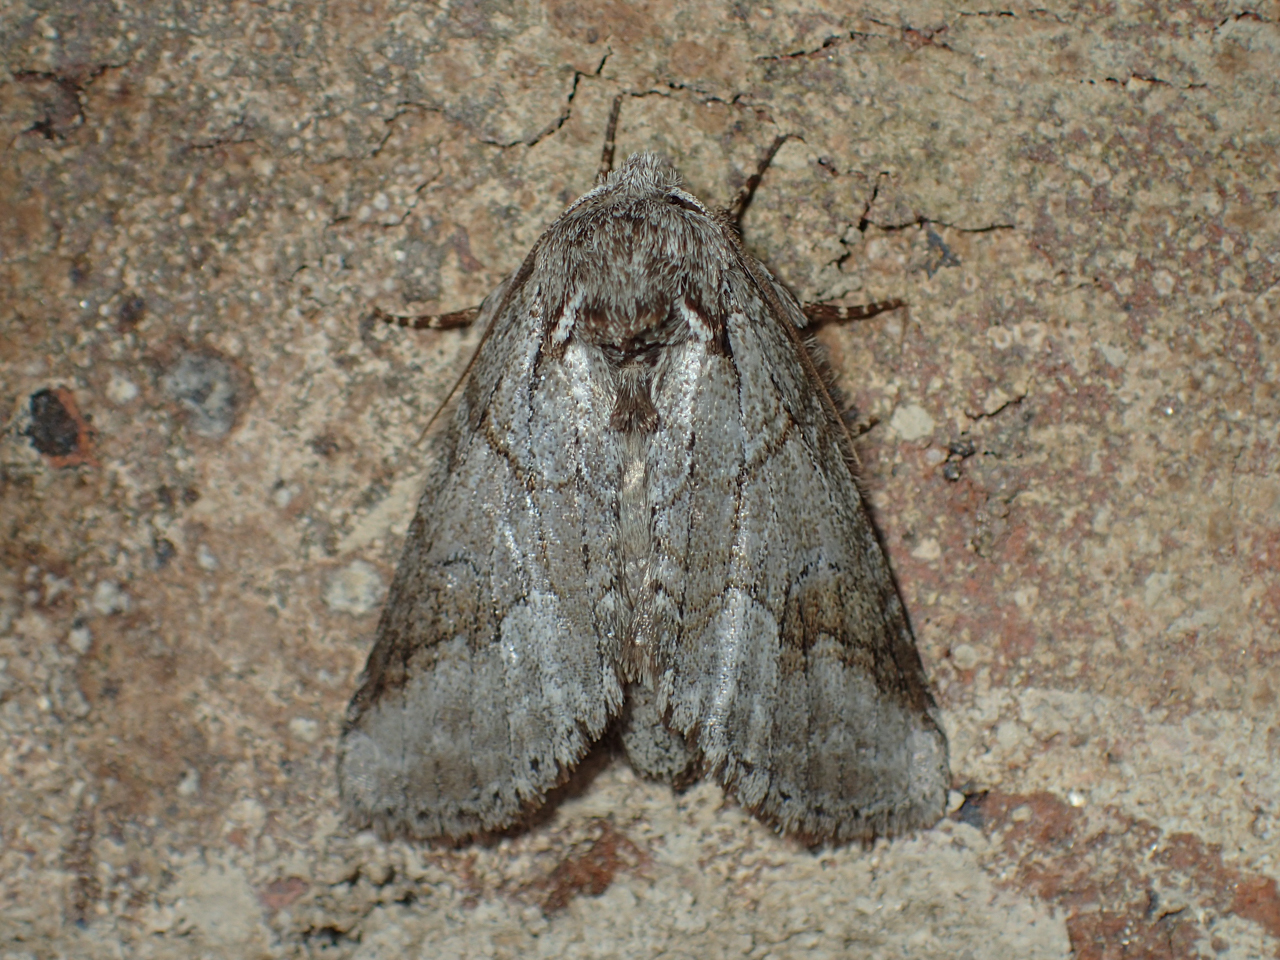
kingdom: Animalia
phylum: Arthropoda
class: Insecta
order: Lepidoptera
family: Notodontidae
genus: Lochmaeus
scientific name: Lochmaeus bilineata
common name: Double-lined prominent
